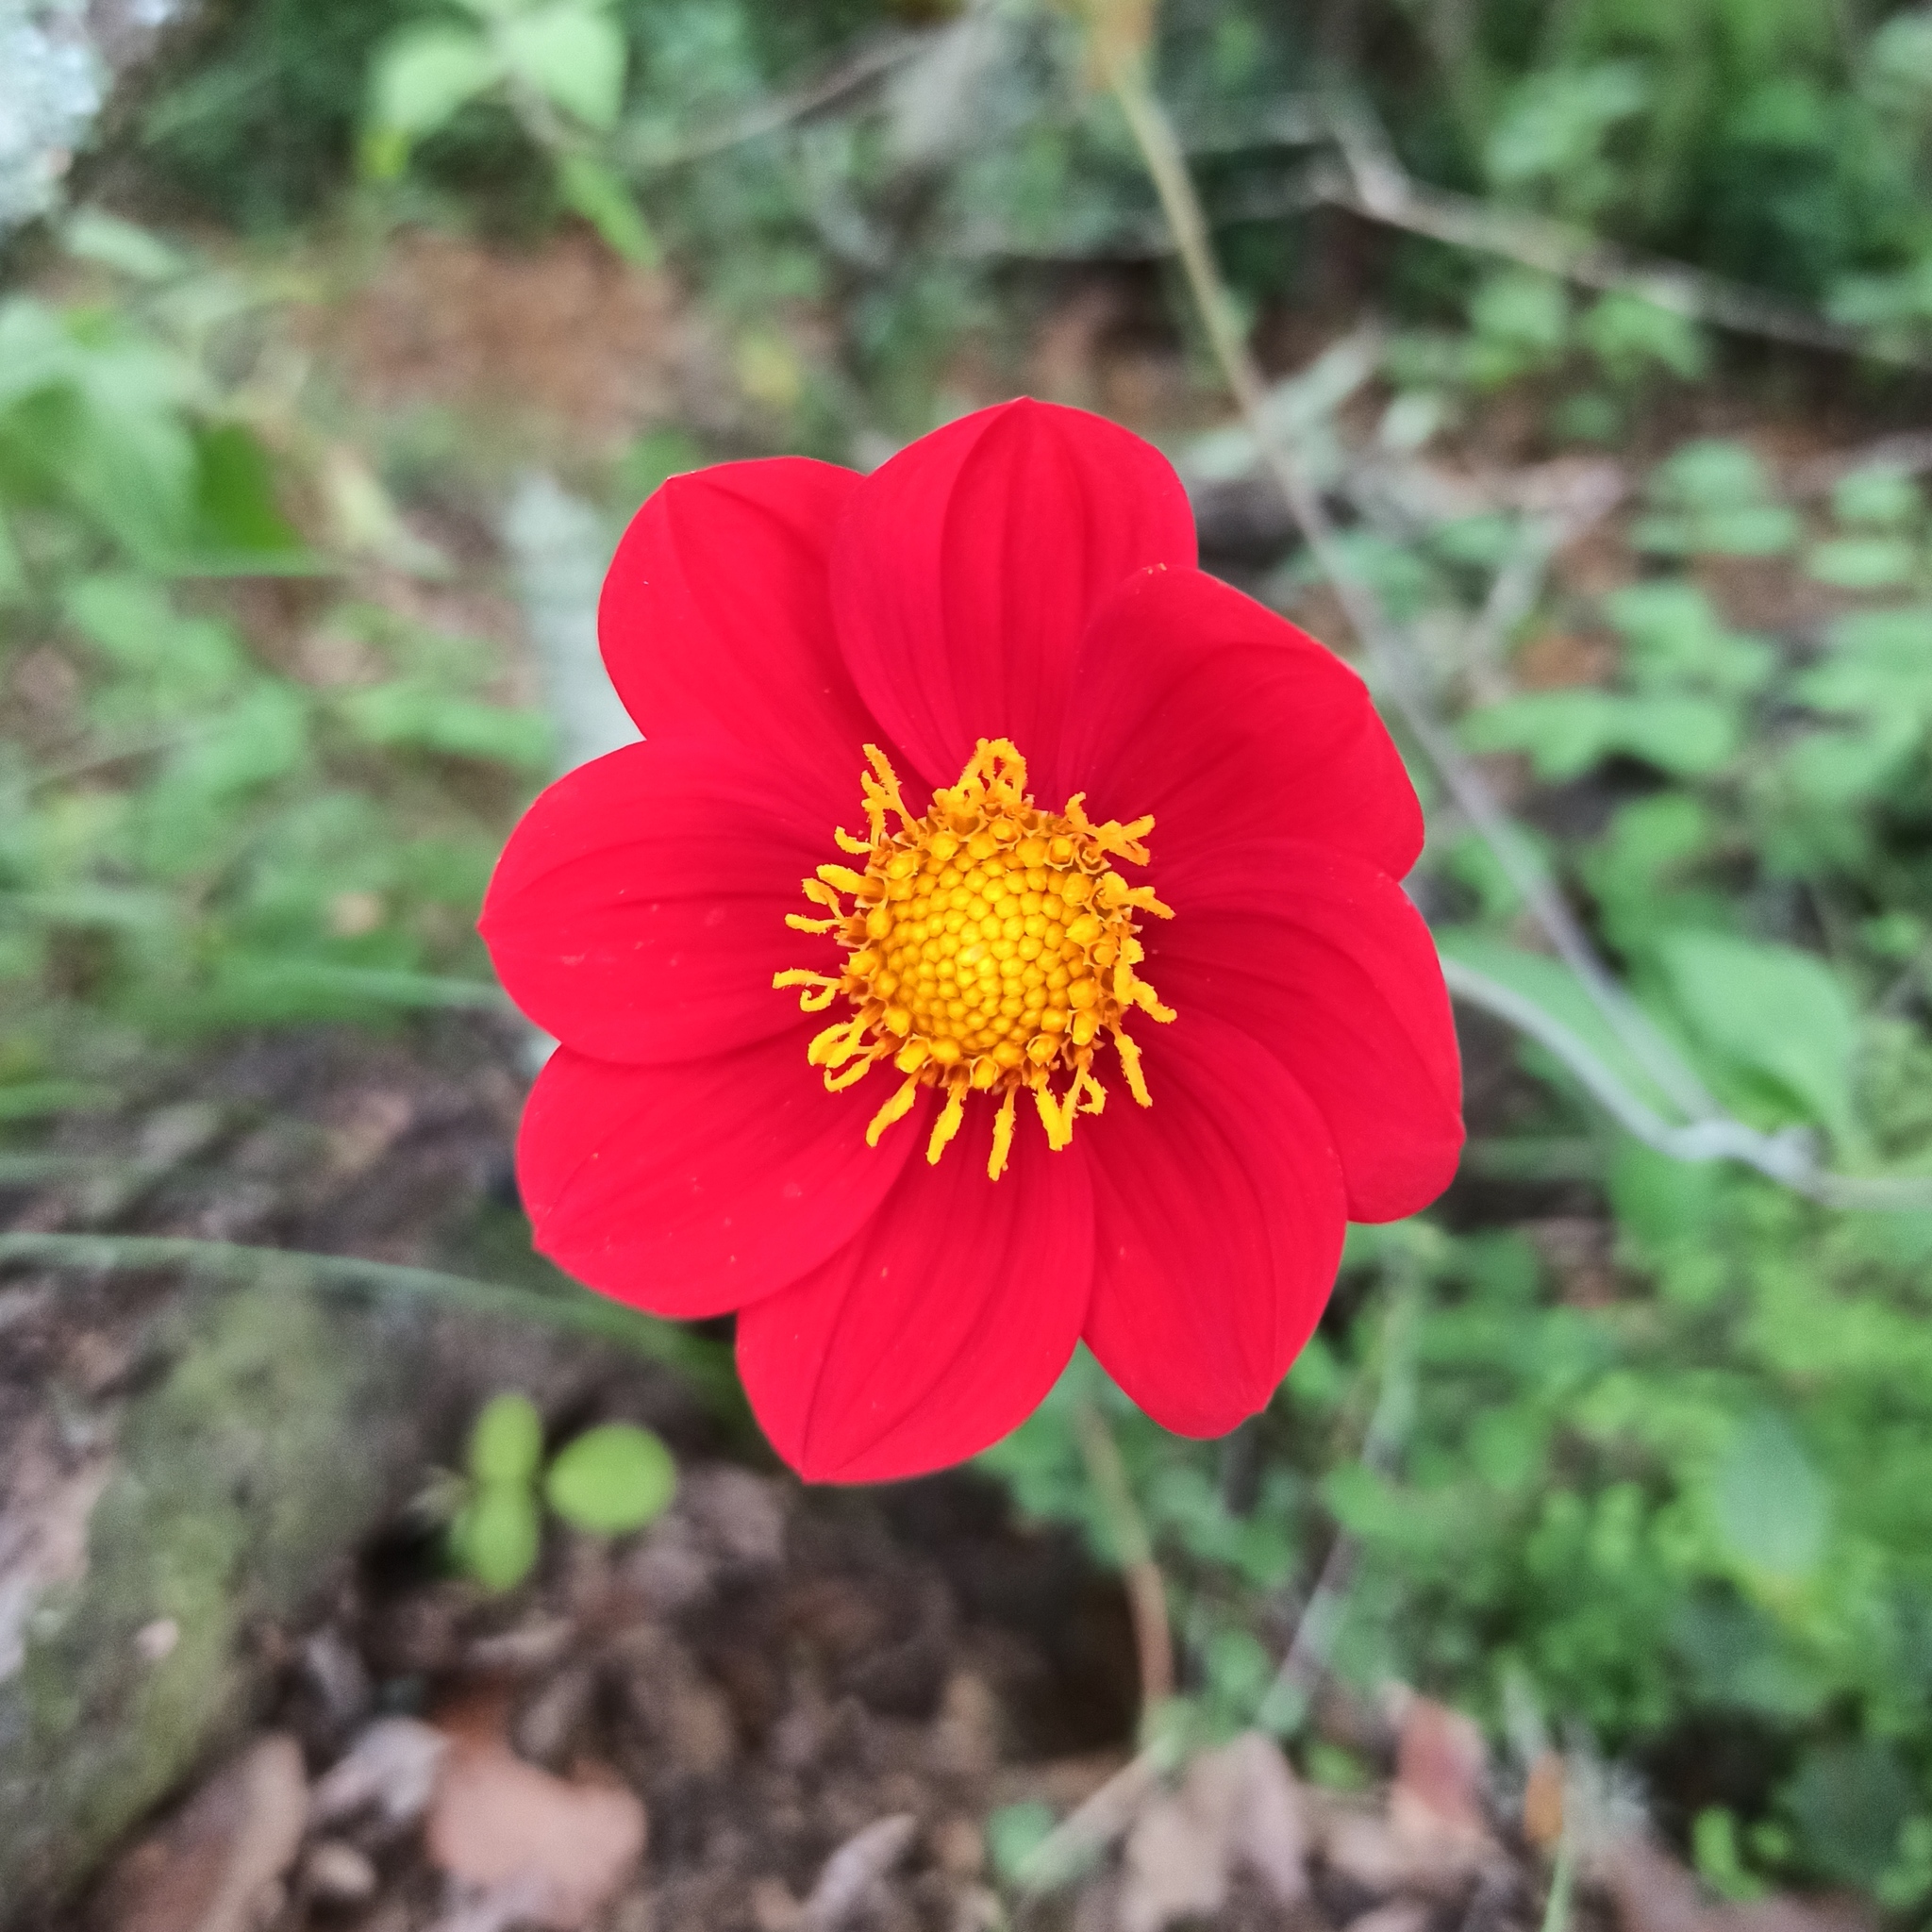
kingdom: Plantae
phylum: Tracheophyta
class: Magnoliopsida
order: Asterales
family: Asteraceae
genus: Dahlia
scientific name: Dahlia coccinea
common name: Red dahlia
